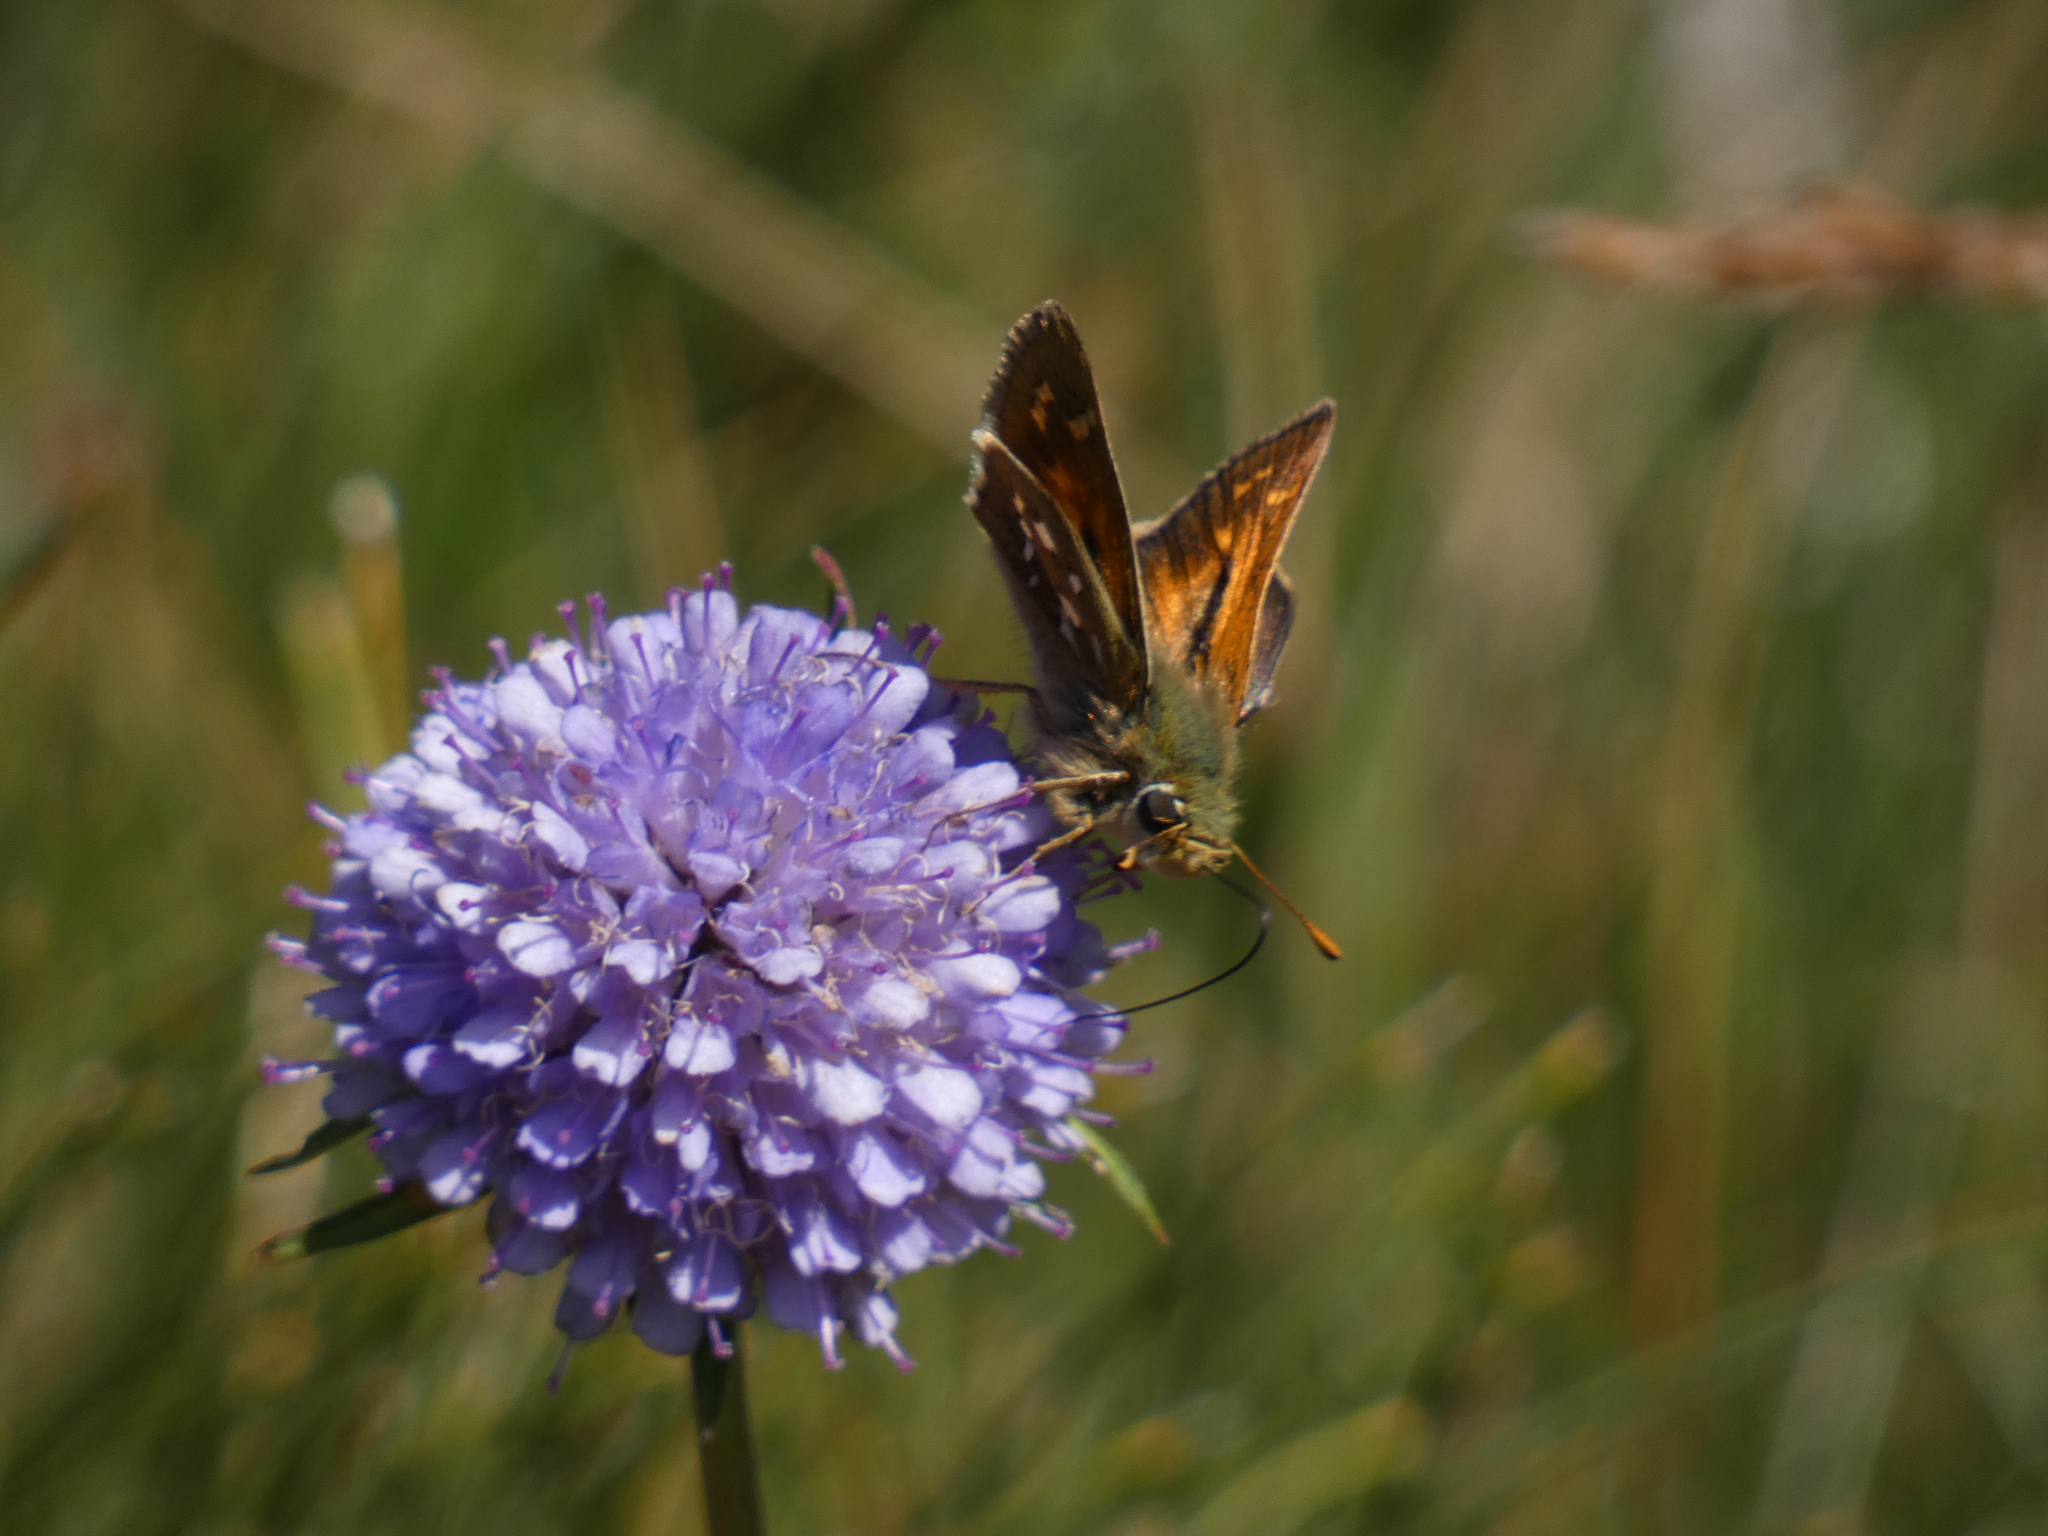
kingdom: Animalia
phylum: Arthropoda
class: Insecta
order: Lepidoptera
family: Hesperiidae
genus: Hesperia
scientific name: Hesperia comma
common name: Common branded skipper
